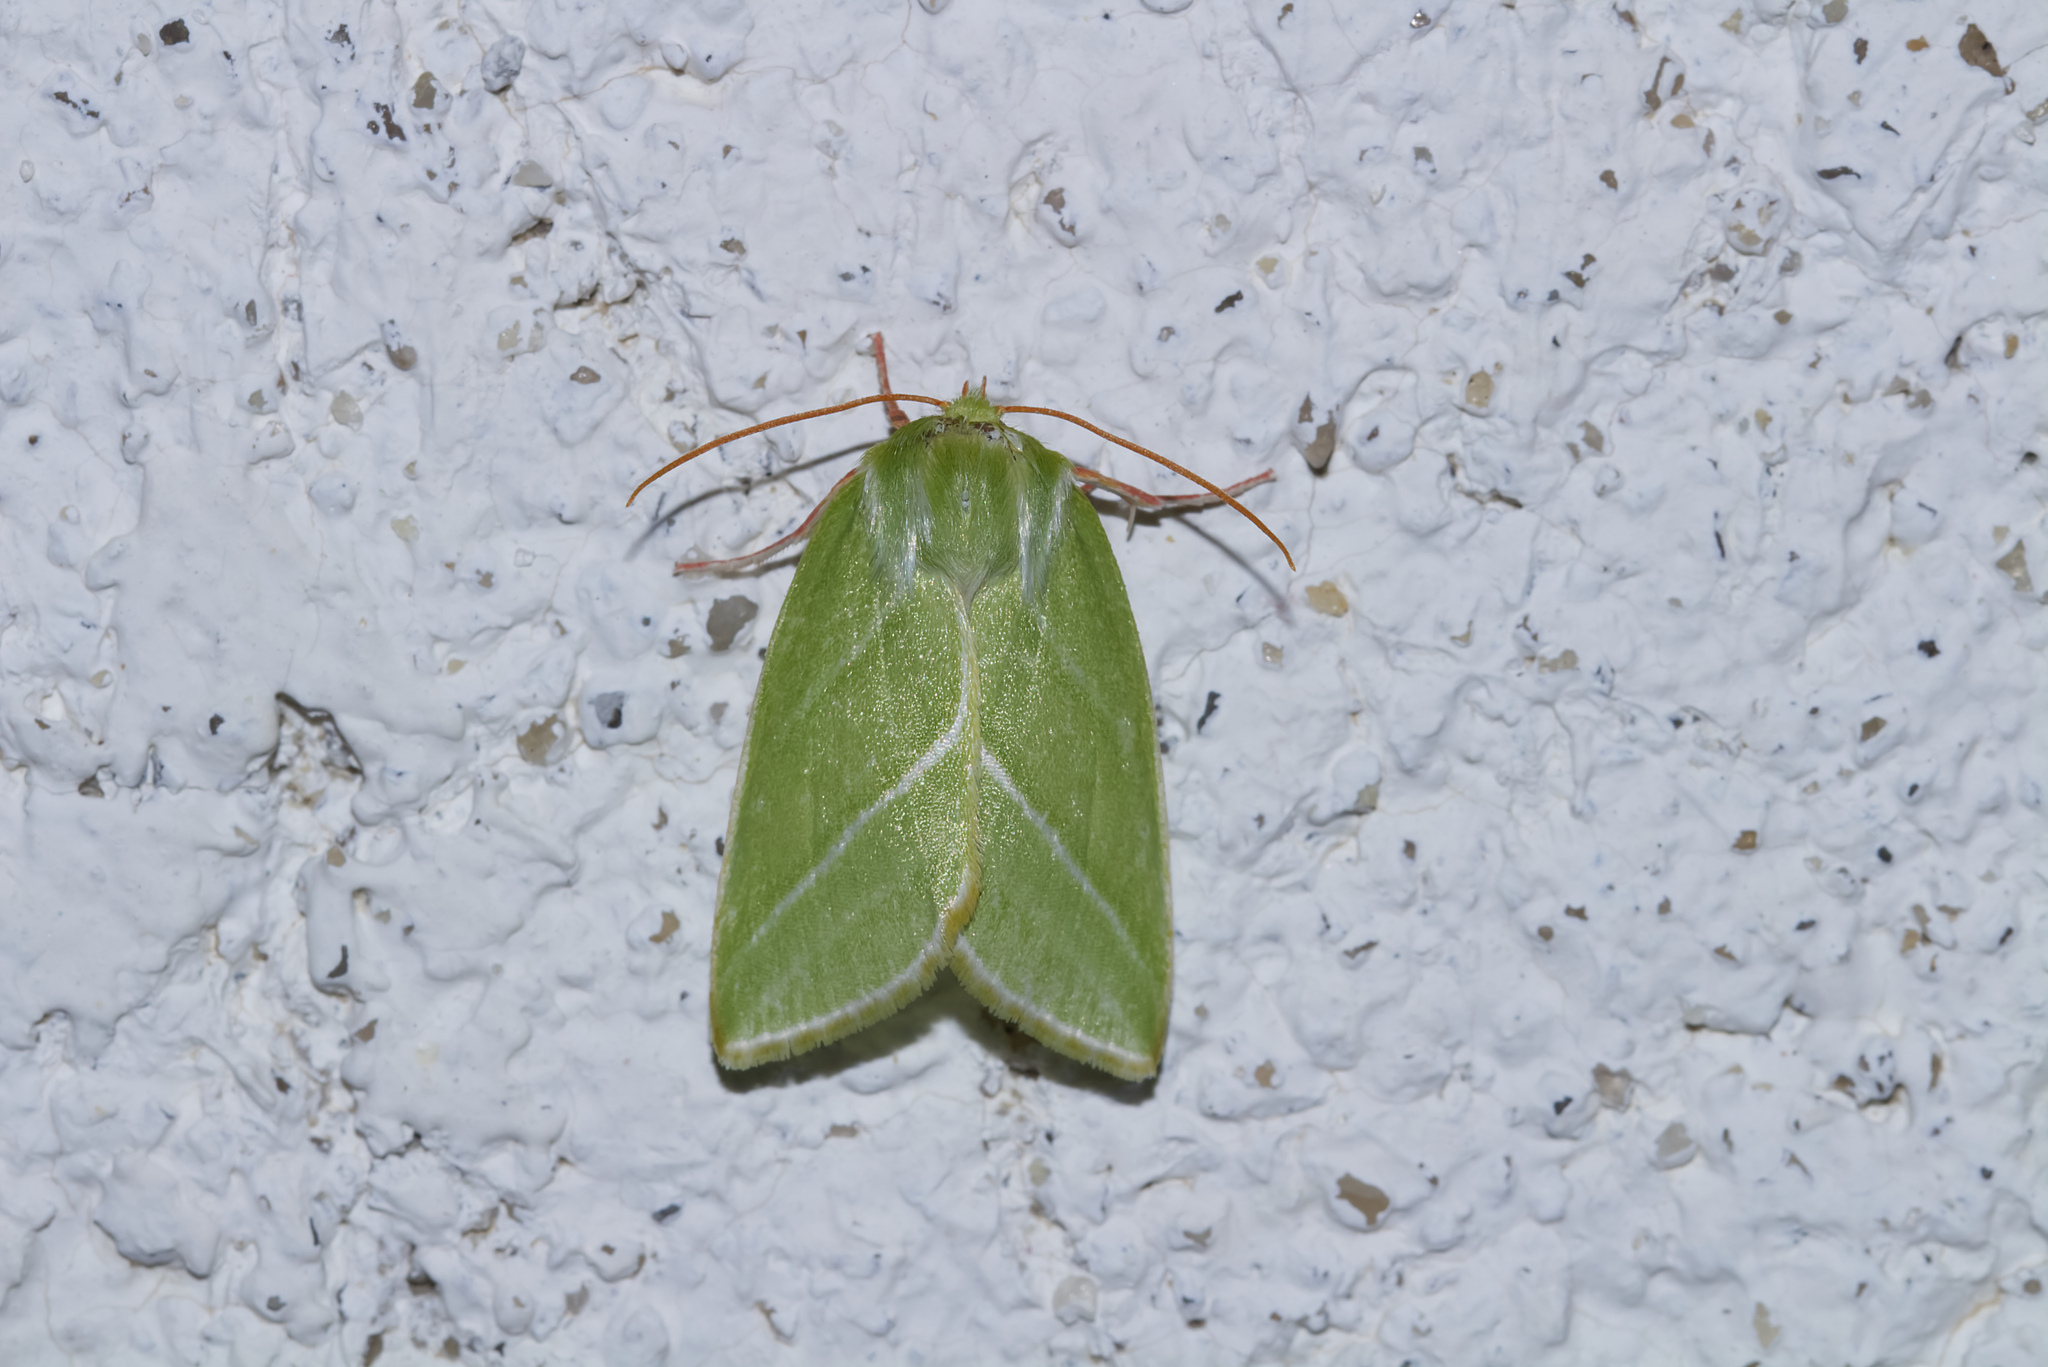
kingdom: Animalia
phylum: Arthropoda
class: Insecta
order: Lepidoptera
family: Nolidae
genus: Pseudoips
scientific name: Pseudoips prasinana
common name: Green silver-lines
